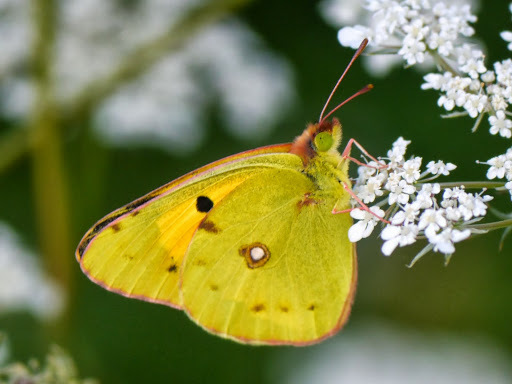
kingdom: Animalia
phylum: Arthropoda
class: Insecta
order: Lepidoptera
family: Pieridae
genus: Colias
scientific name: Colias croceus
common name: Clouded yellow
